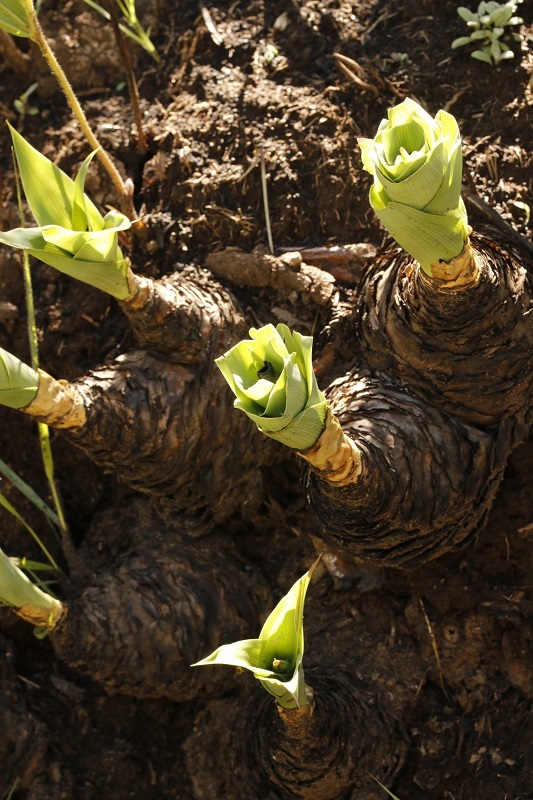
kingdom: Plantae
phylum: Tracheophyta
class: Liliopsida
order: Asparagales
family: Asparagaceae
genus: Merwilla
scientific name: Merwilla plumbea
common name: Blue-squill
